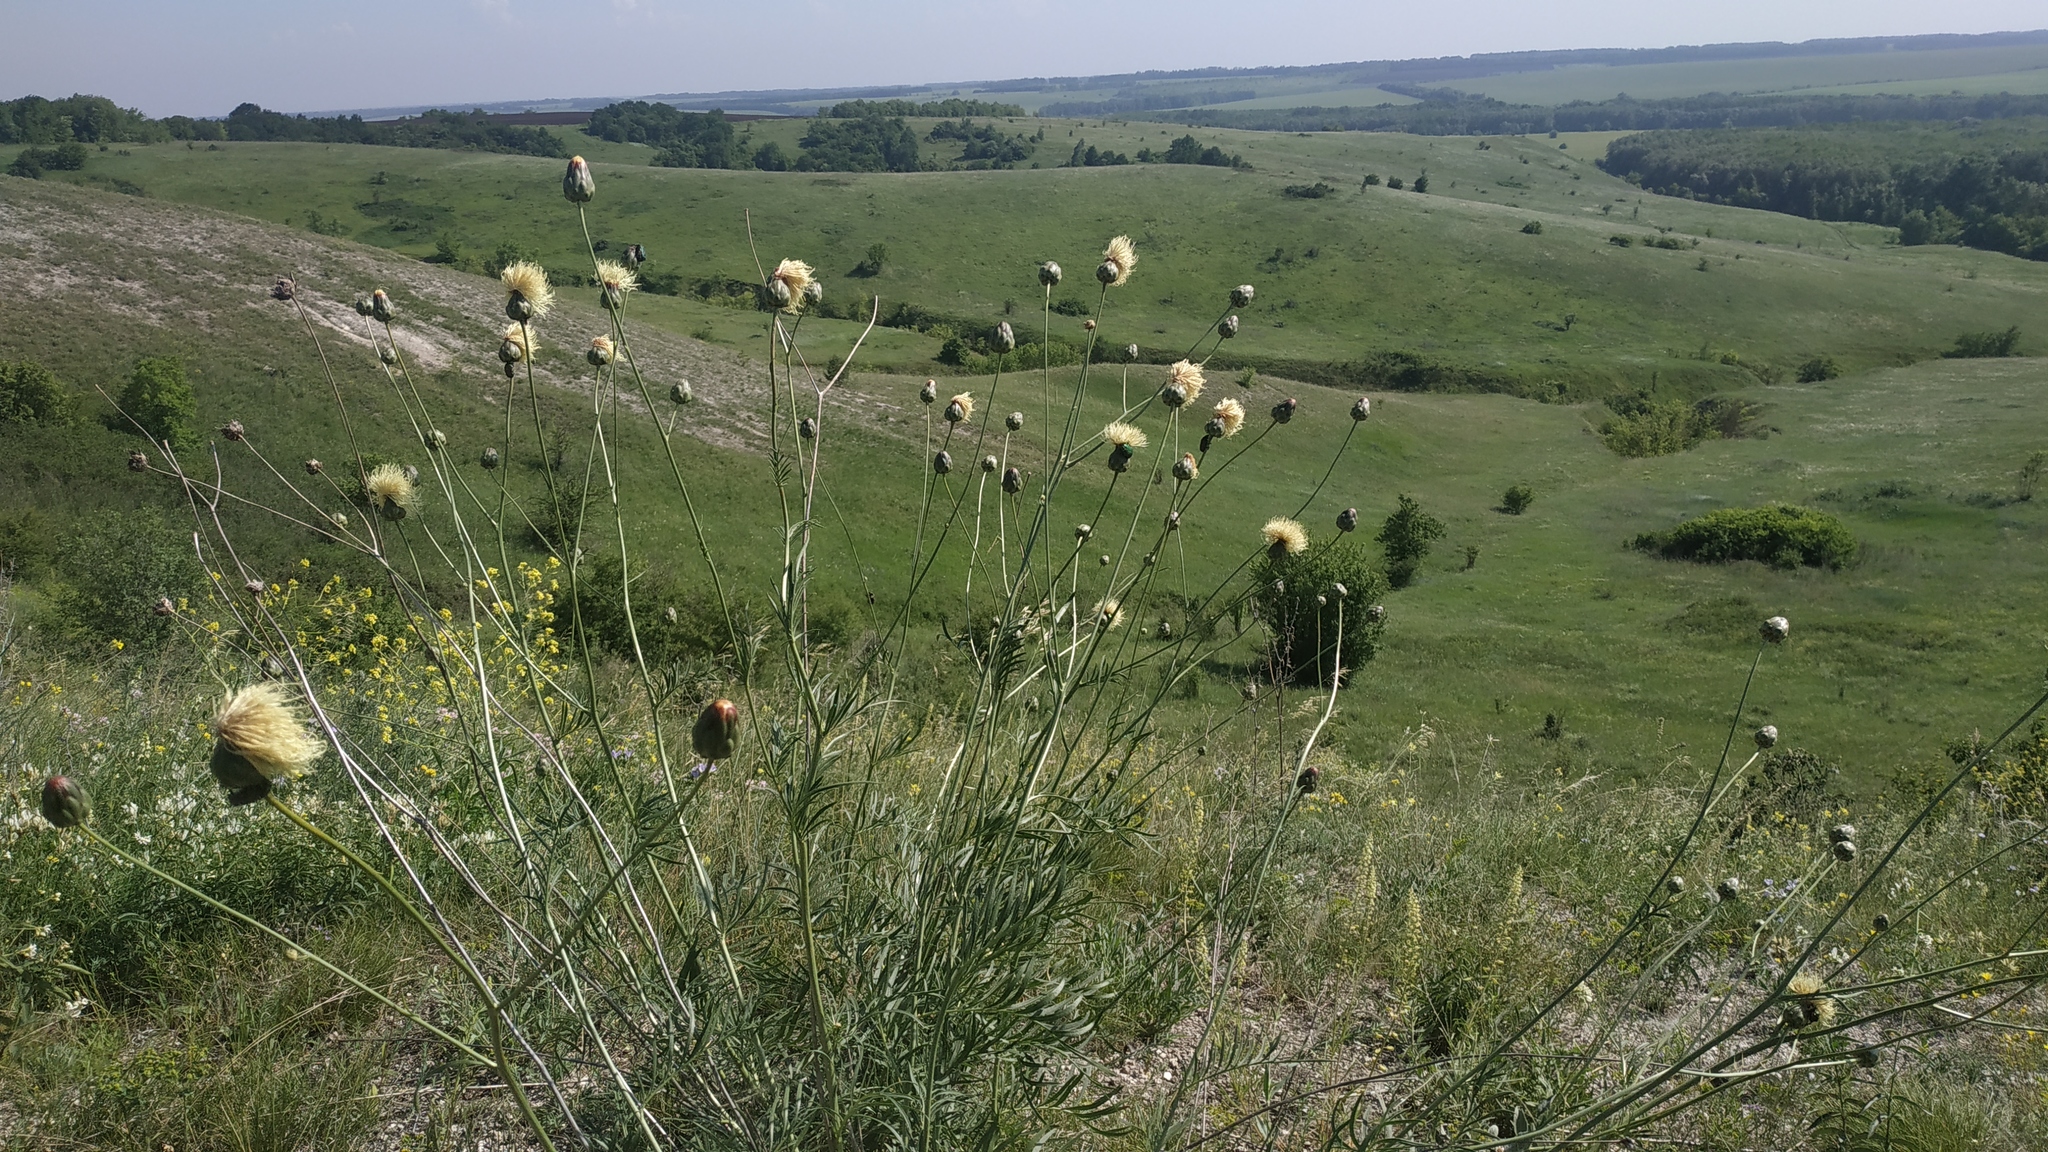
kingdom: Plantae
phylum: Tracheophyta
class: Magnoliopsida
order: Asterales
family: Asteraceae
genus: Rhaponticoides
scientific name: Rhaponticoides ruthenica
